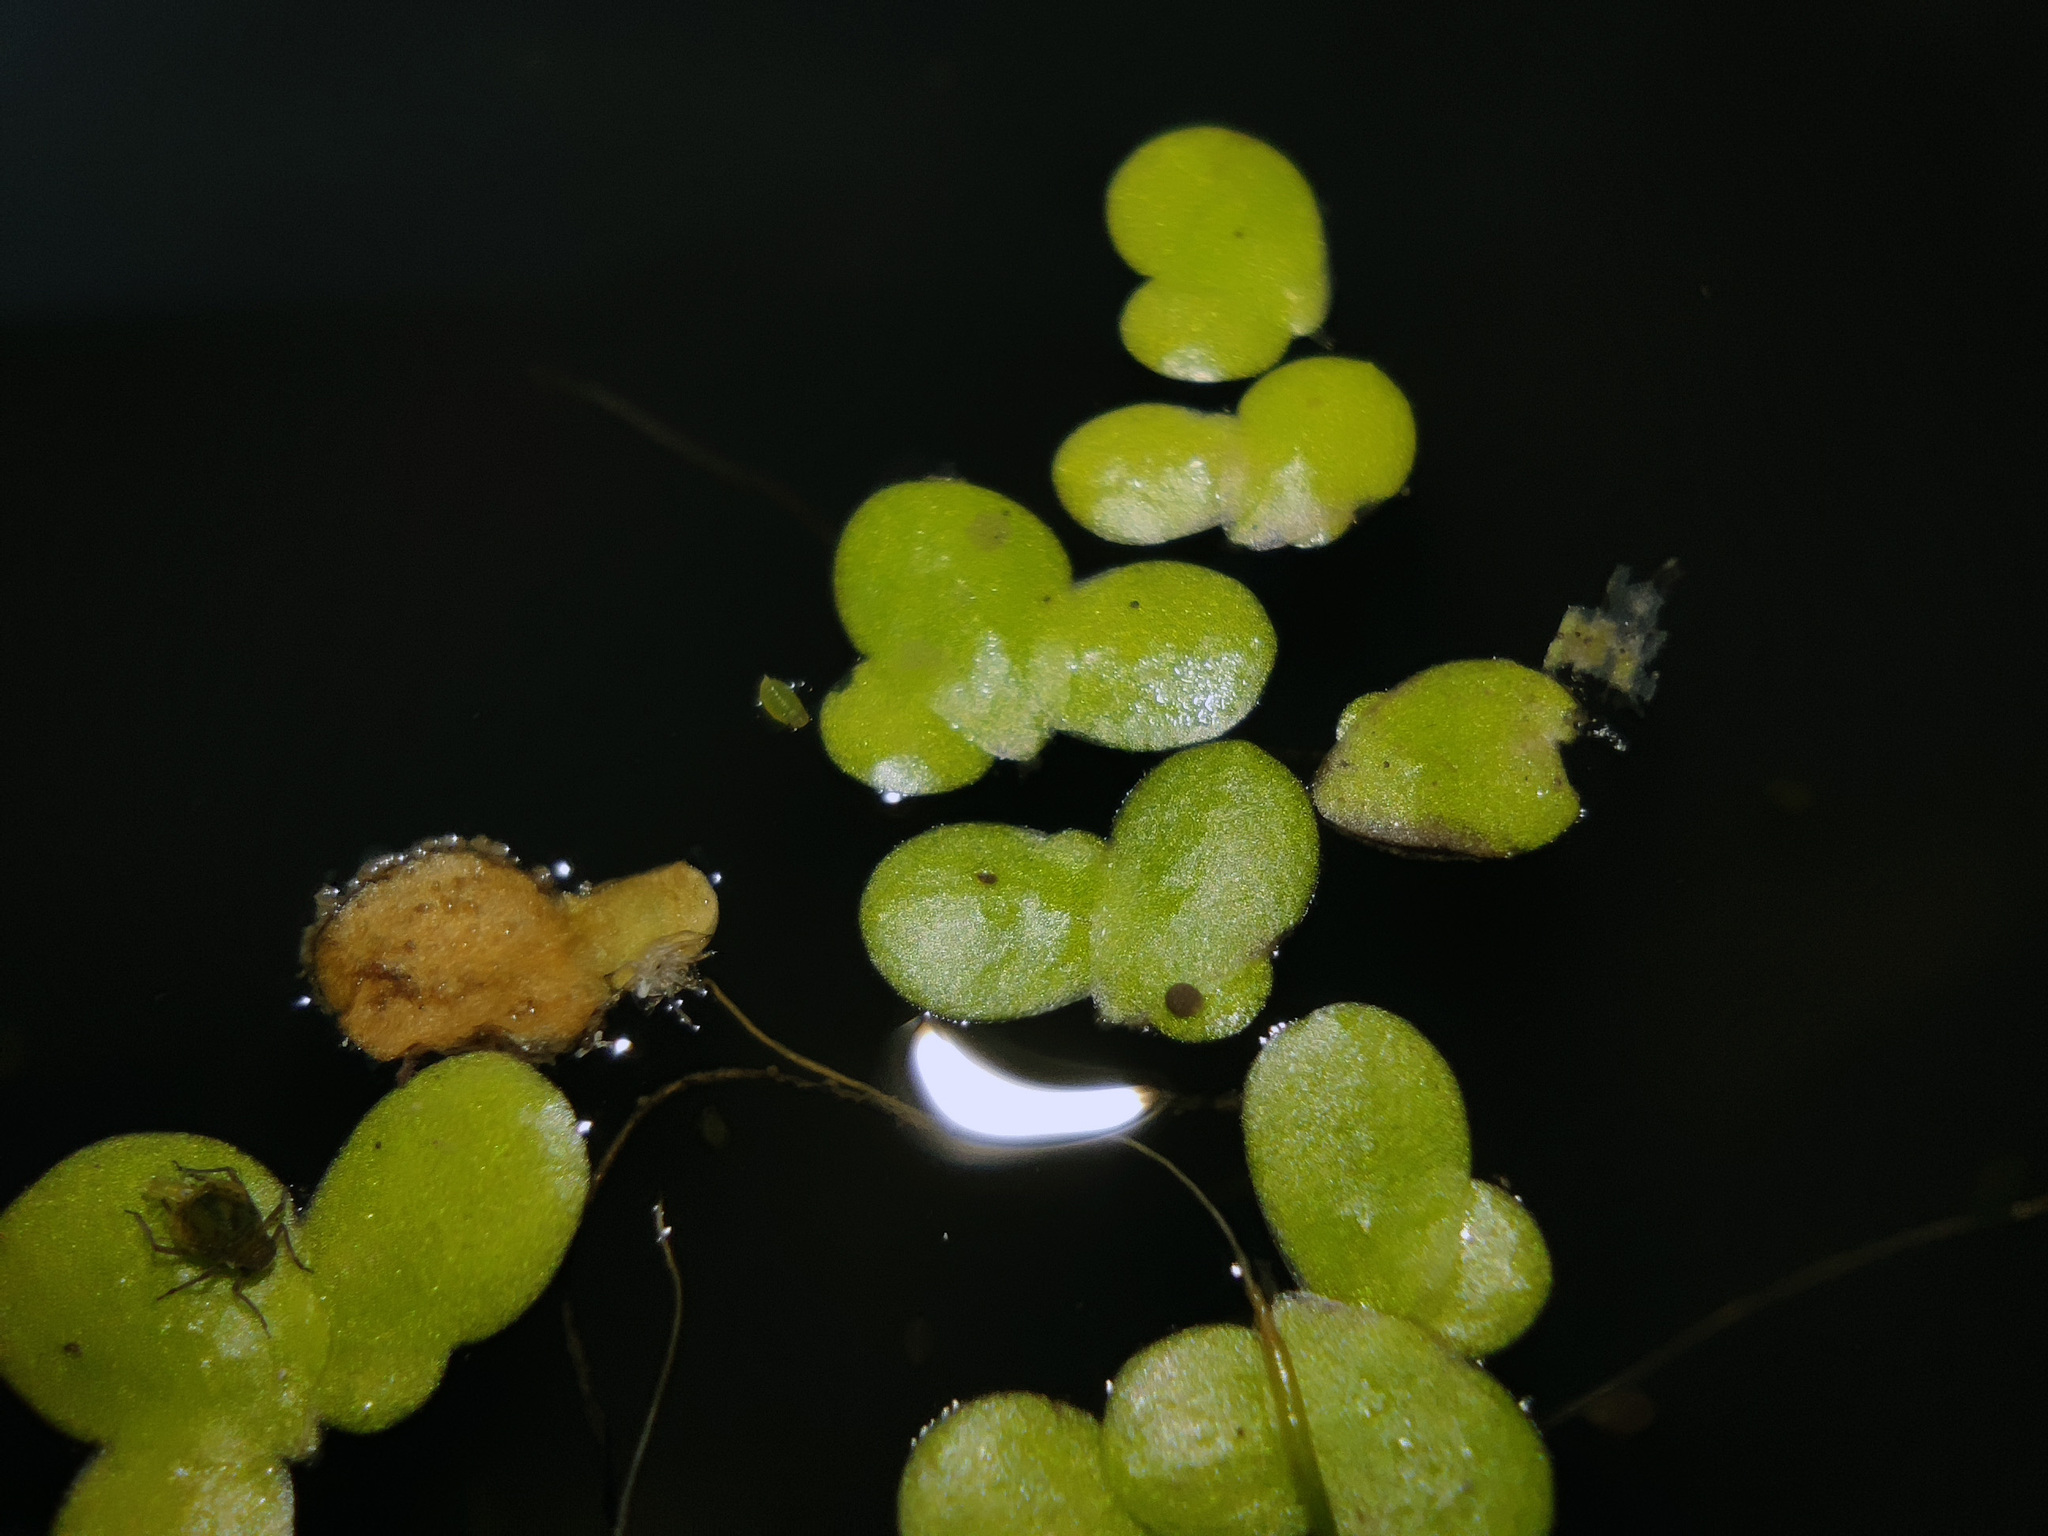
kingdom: Plantae
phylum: Tracheophyta
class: Liliopsida
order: Alismatales
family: Araceae
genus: Lemna
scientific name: Lemna minor
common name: Common duckweed
